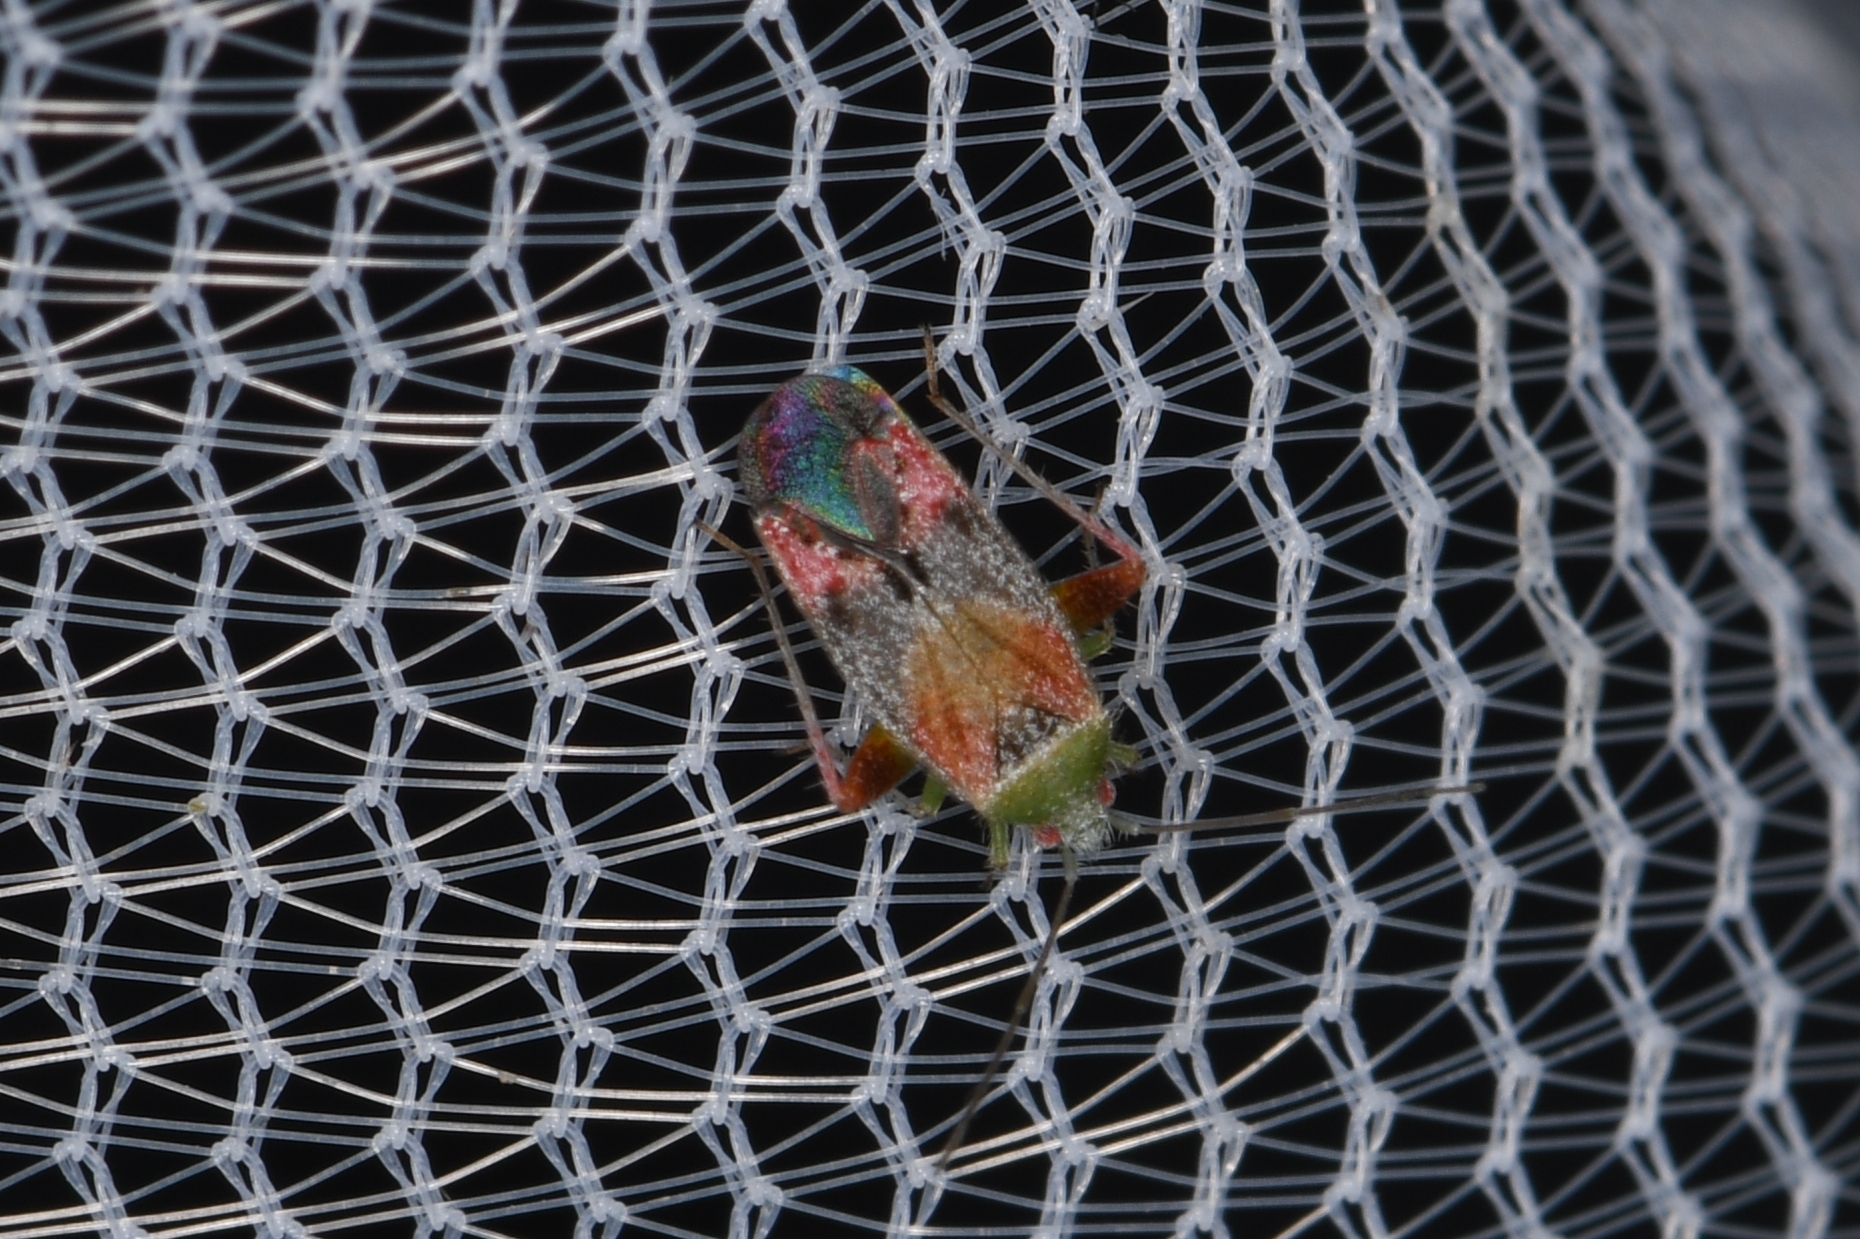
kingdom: Animalia
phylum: Arthropoda
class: Insecta
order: Hemiptera
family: Miridae
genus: Parthenicus
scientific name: Parthenicus pictus
